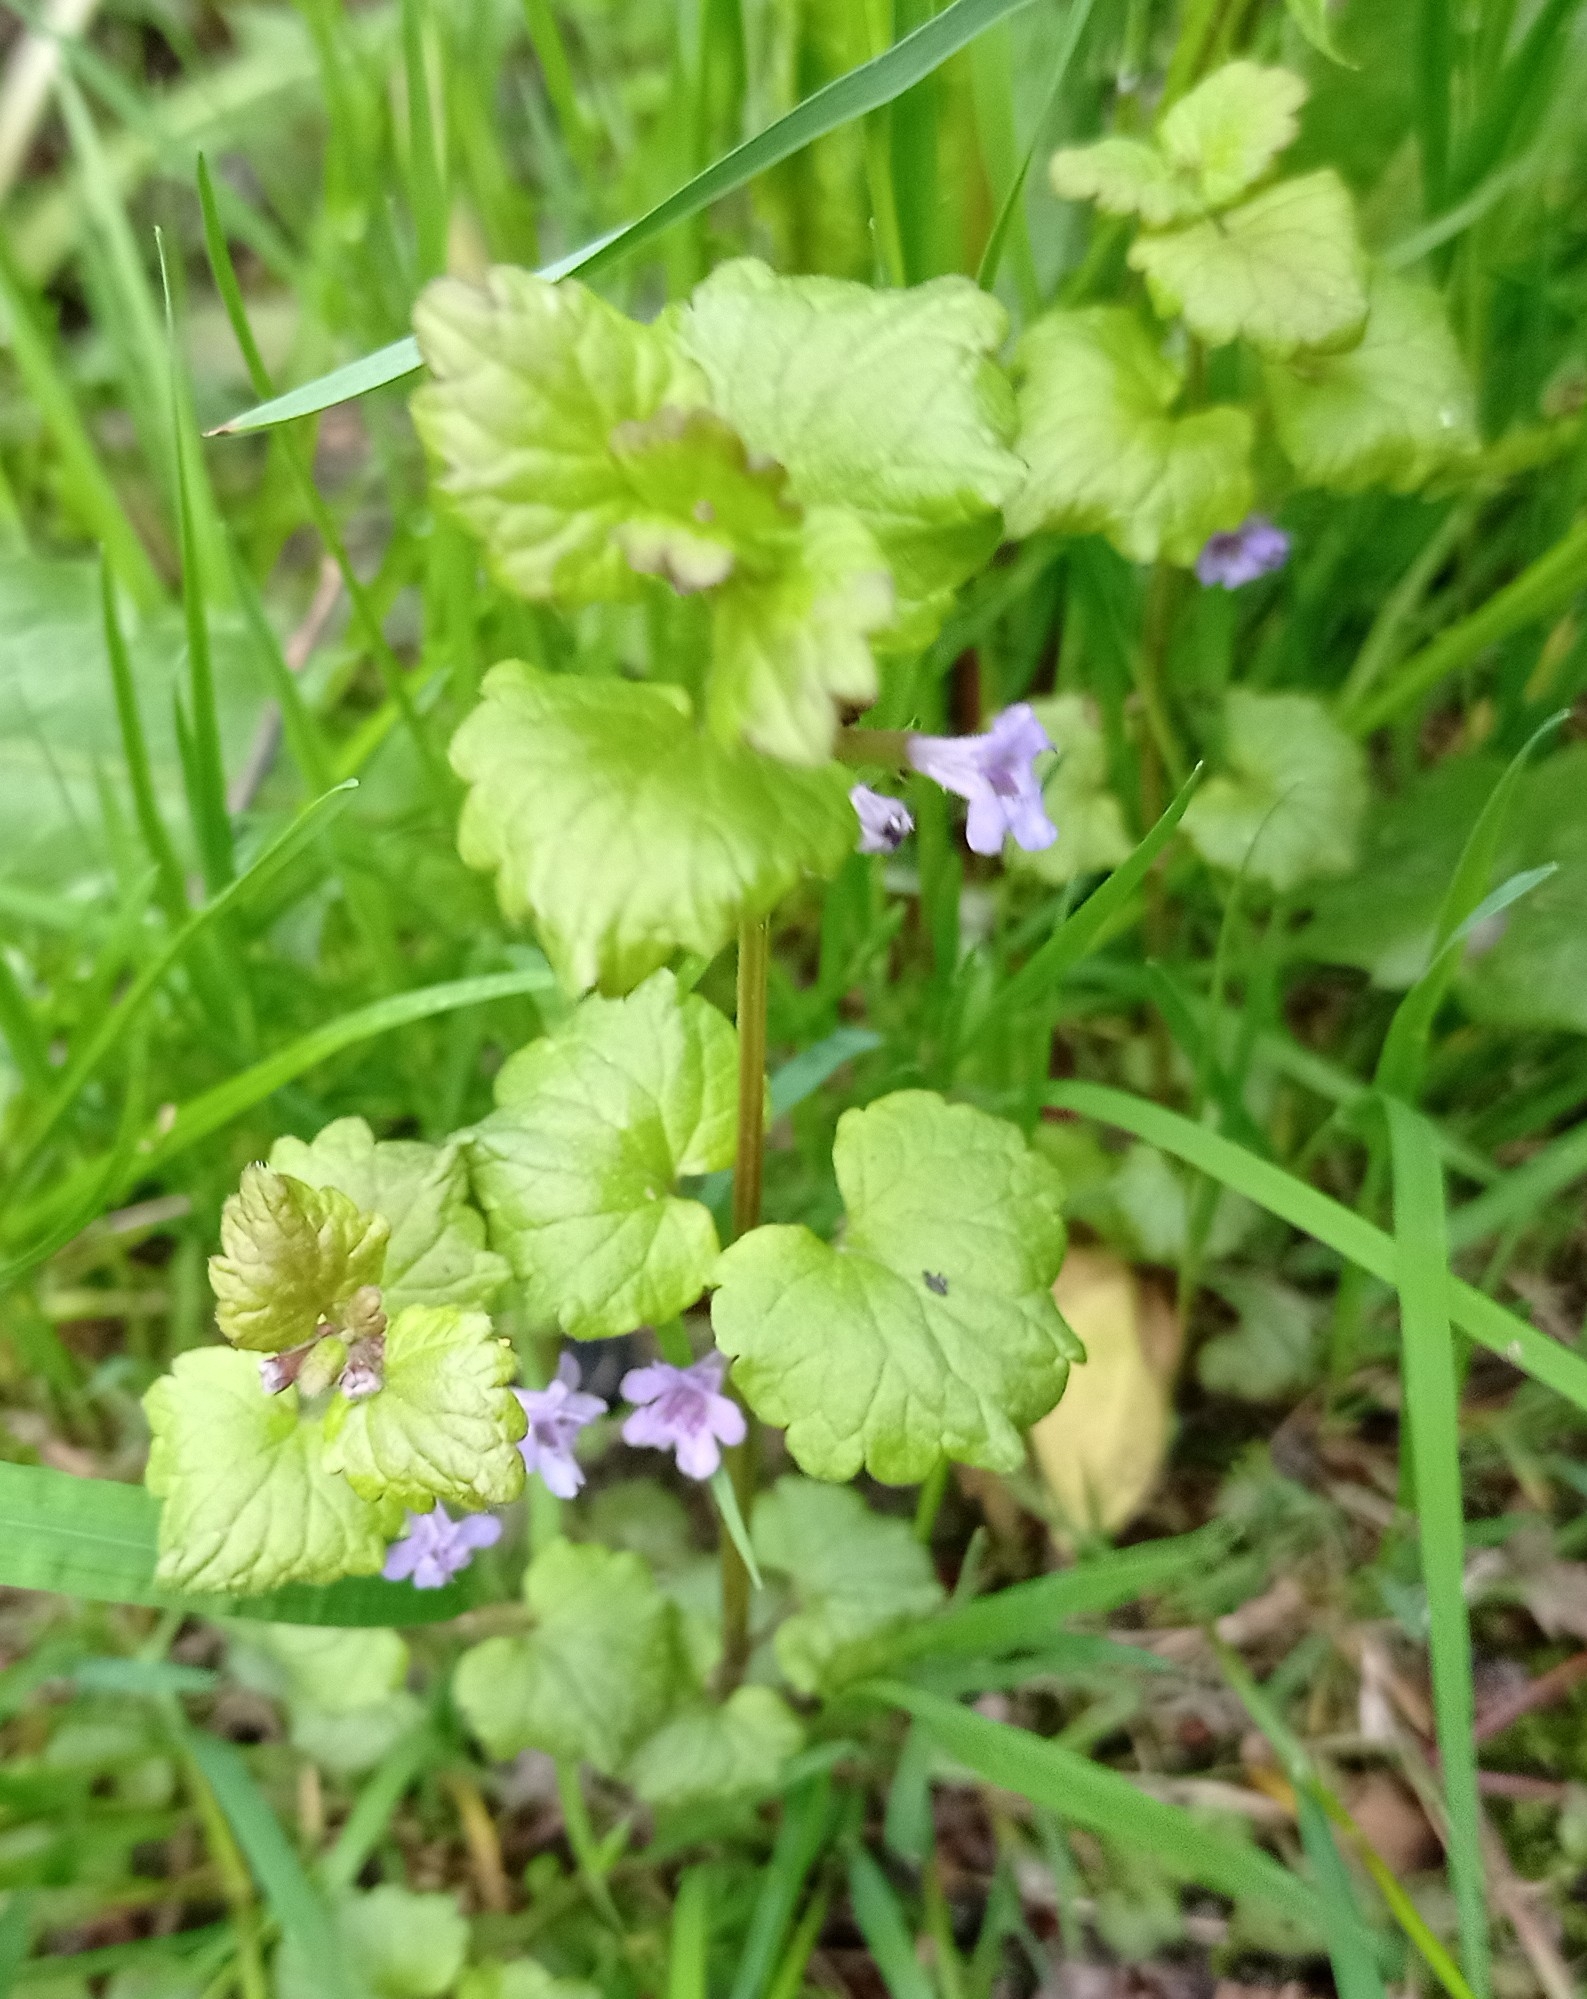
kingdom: Plantae
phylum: Tracheophyta
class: Magnoliopsida
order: Lamiales
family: Lamiaceae
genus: Glechoma
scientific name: Glechoma hederacea
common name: Ground ivy
